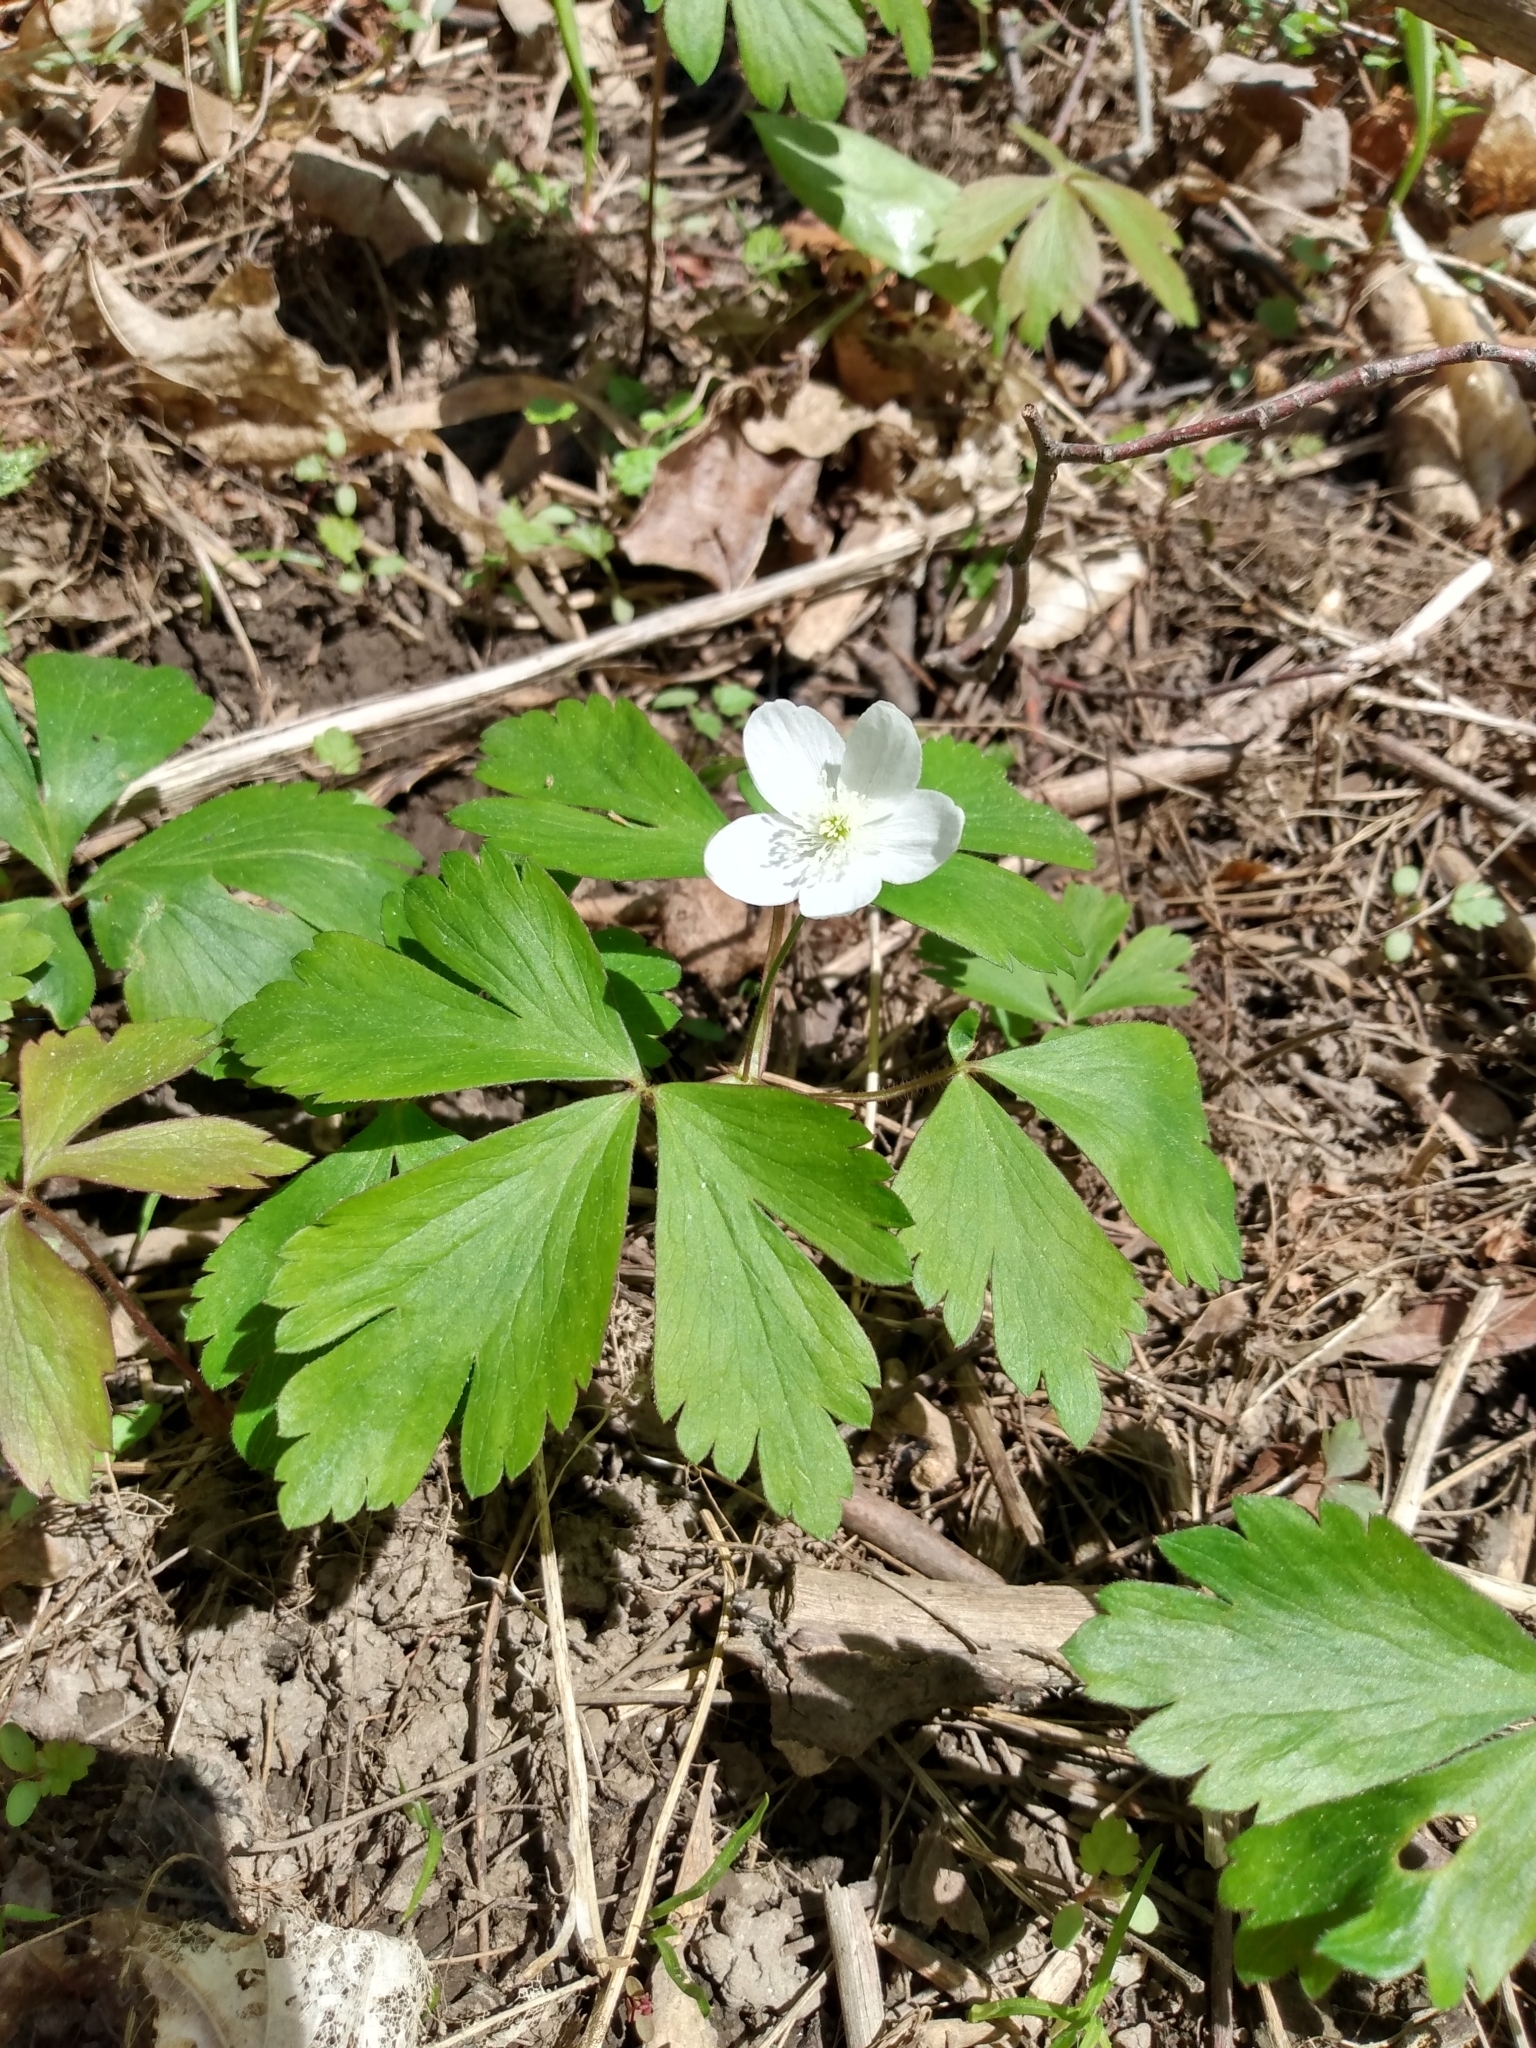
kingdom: Plantae
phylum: Tracheophyta
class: Magnoliopsida
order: Ranunculales
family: Ranunculaceae
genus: Anemone
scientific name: Anemone quinquefolia
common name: Wood anemone
